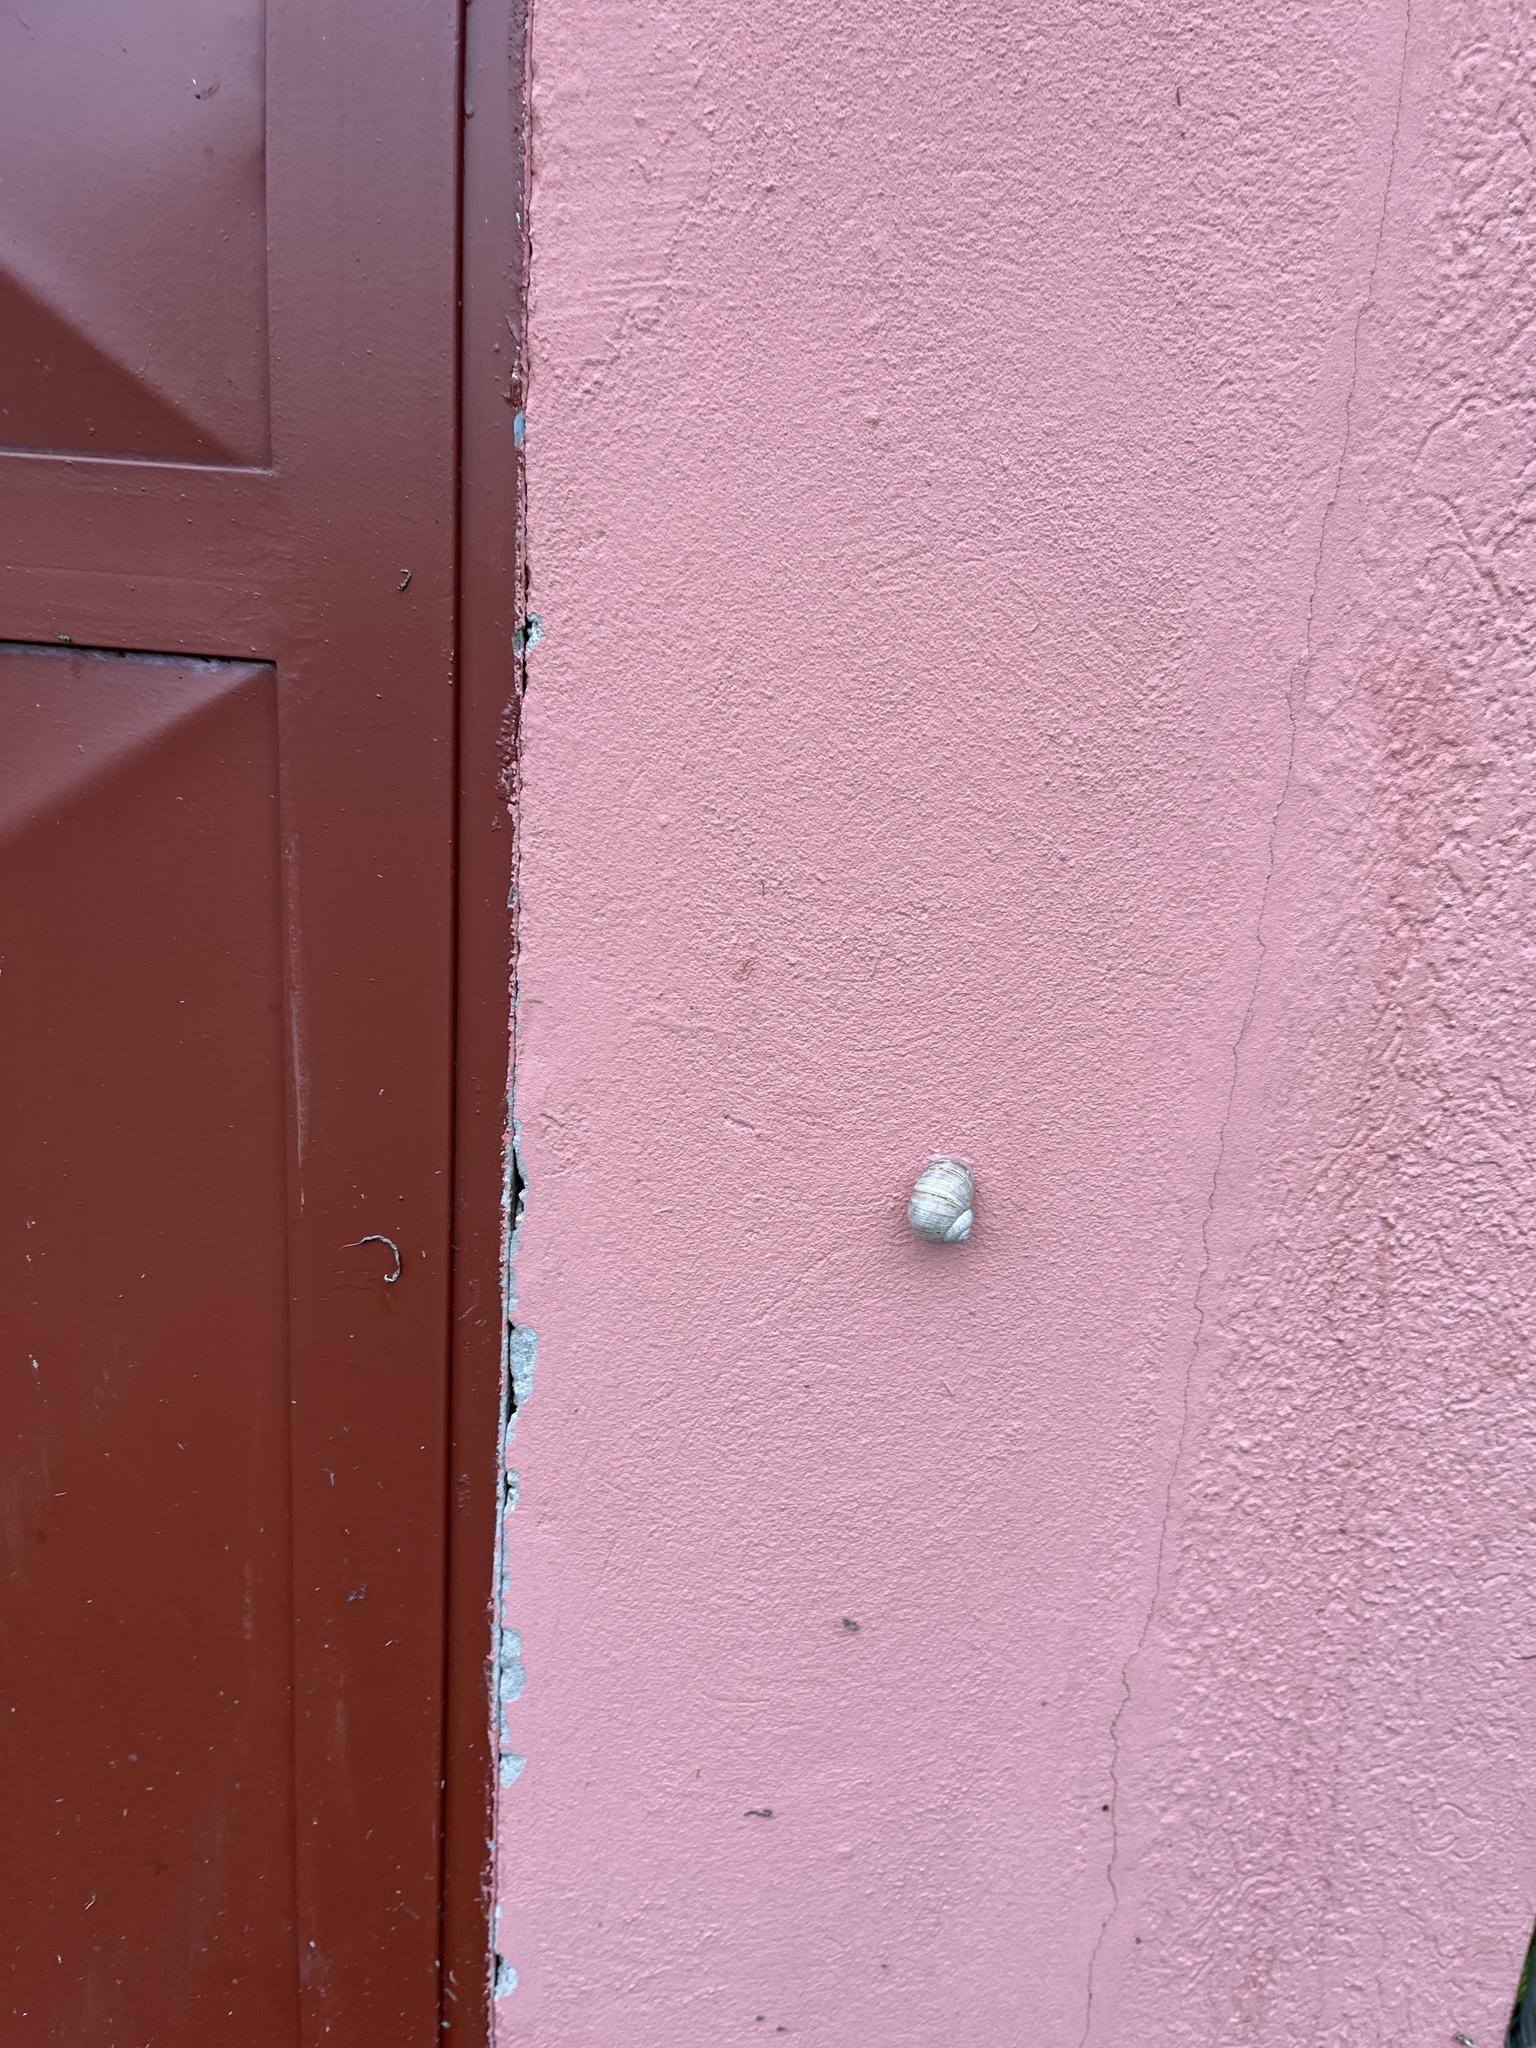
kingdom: Animalia
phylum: Mollusca
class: Gastropoda
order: Stylommatophora
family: Helicidae
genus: Helix
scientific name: Helix pomatia
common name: Roman snail
